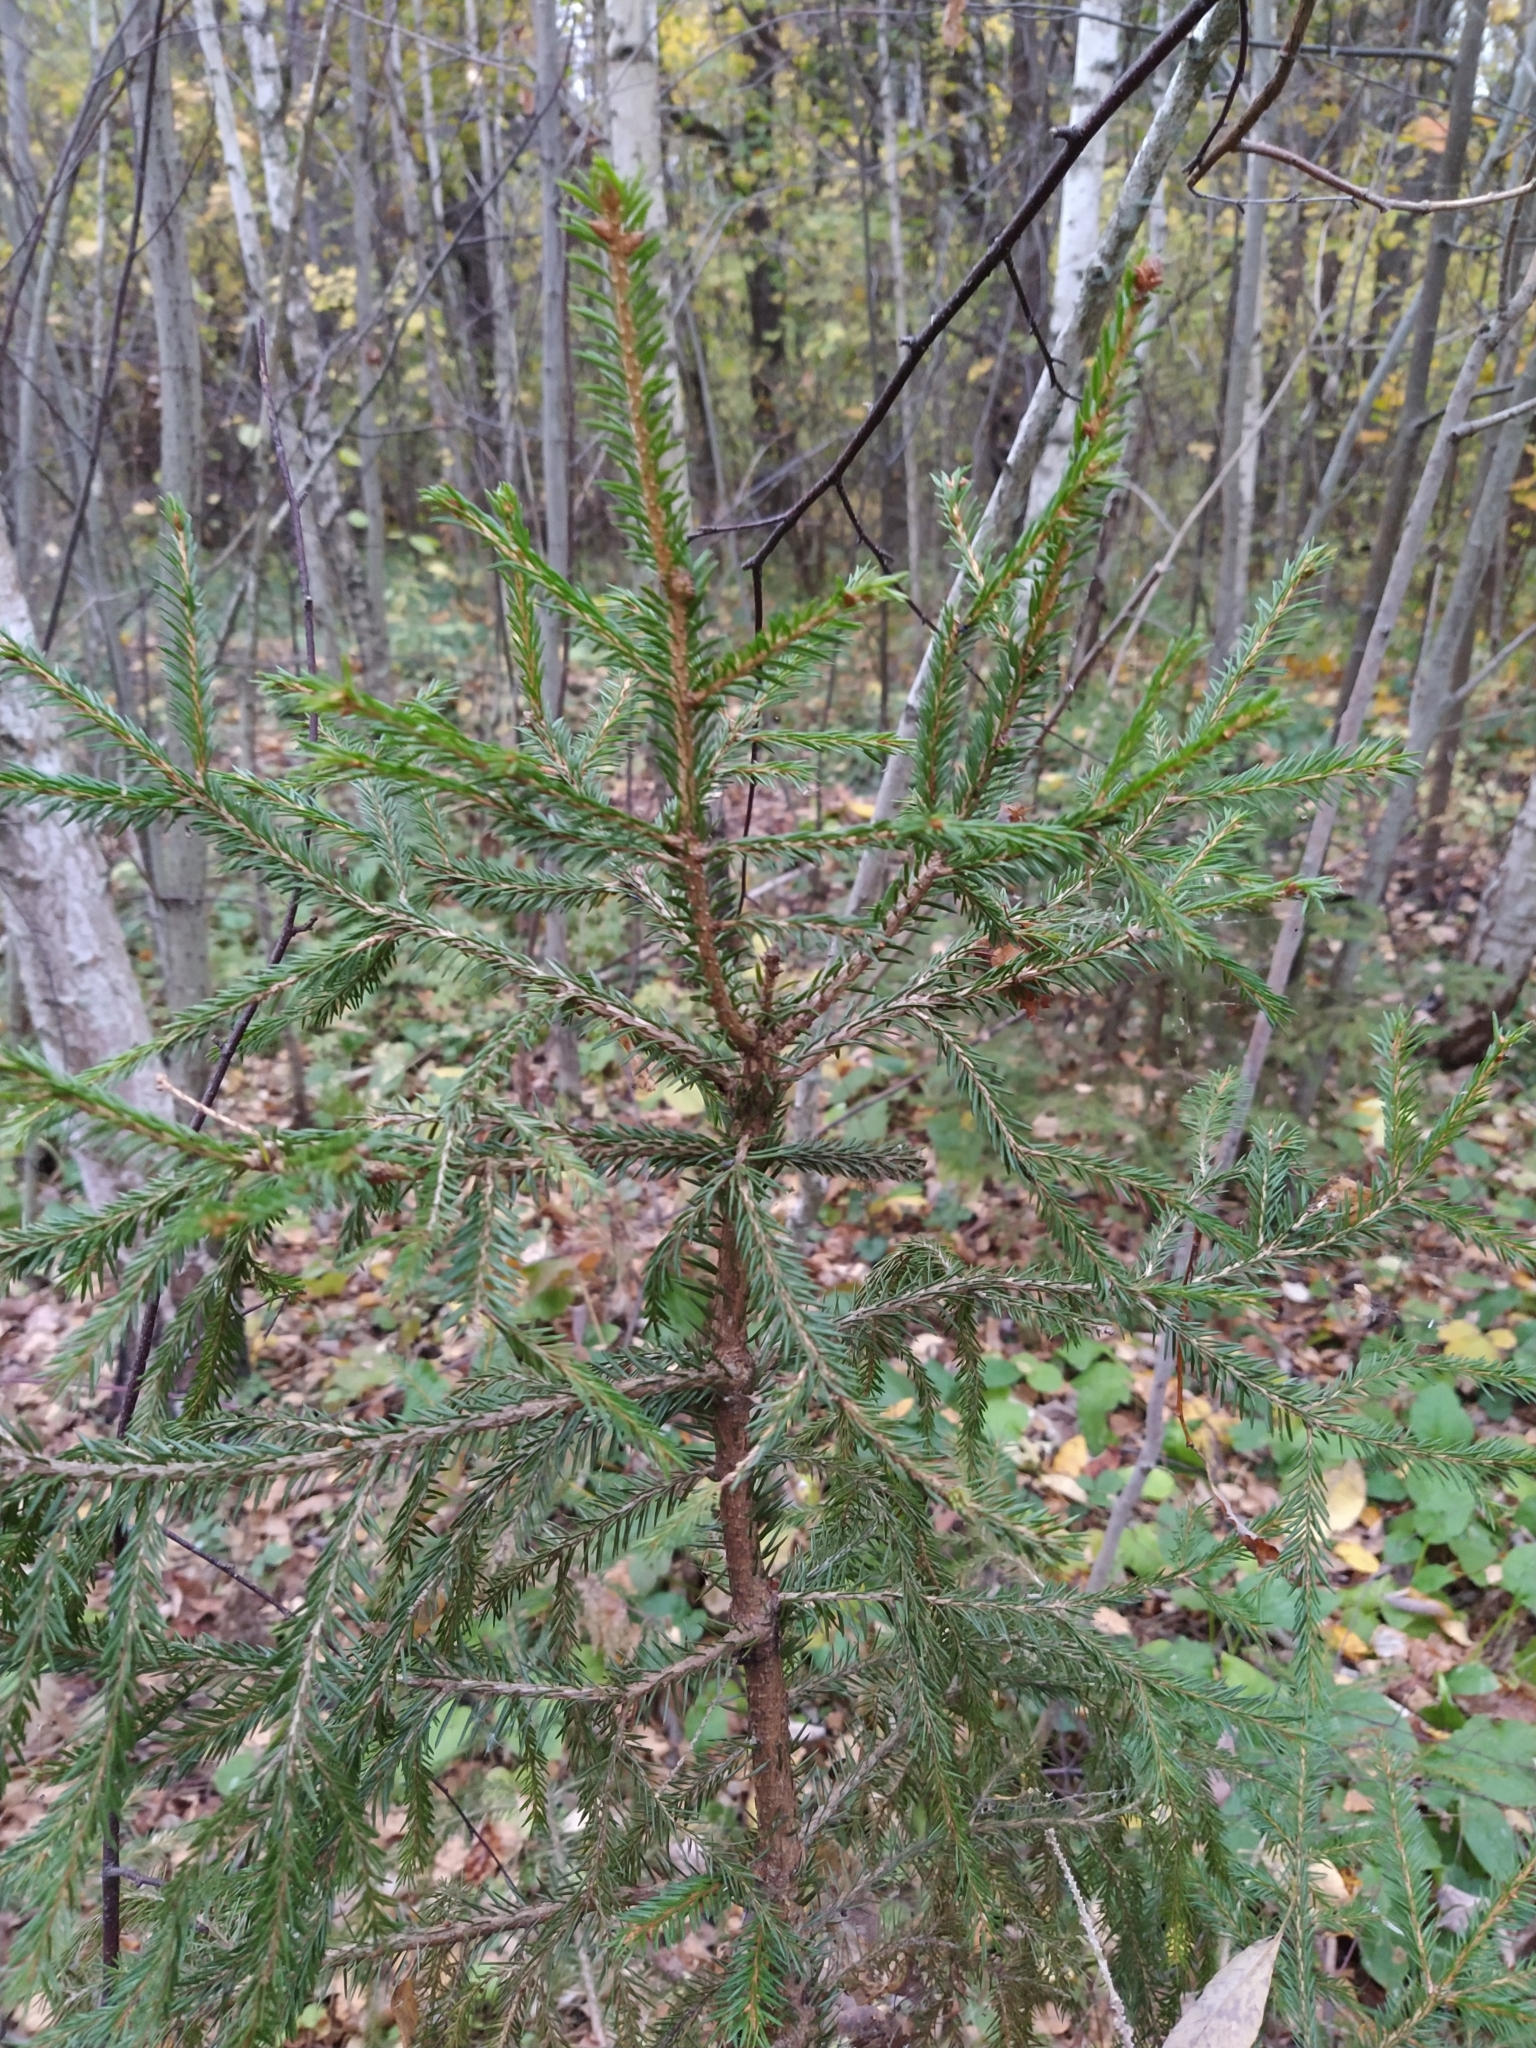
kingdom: Plantae
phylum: Tracheophyta
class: Pinopsida
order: Pinales
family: Pinaceae
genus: Picea
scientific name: Picea abies
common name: Norway spruce
